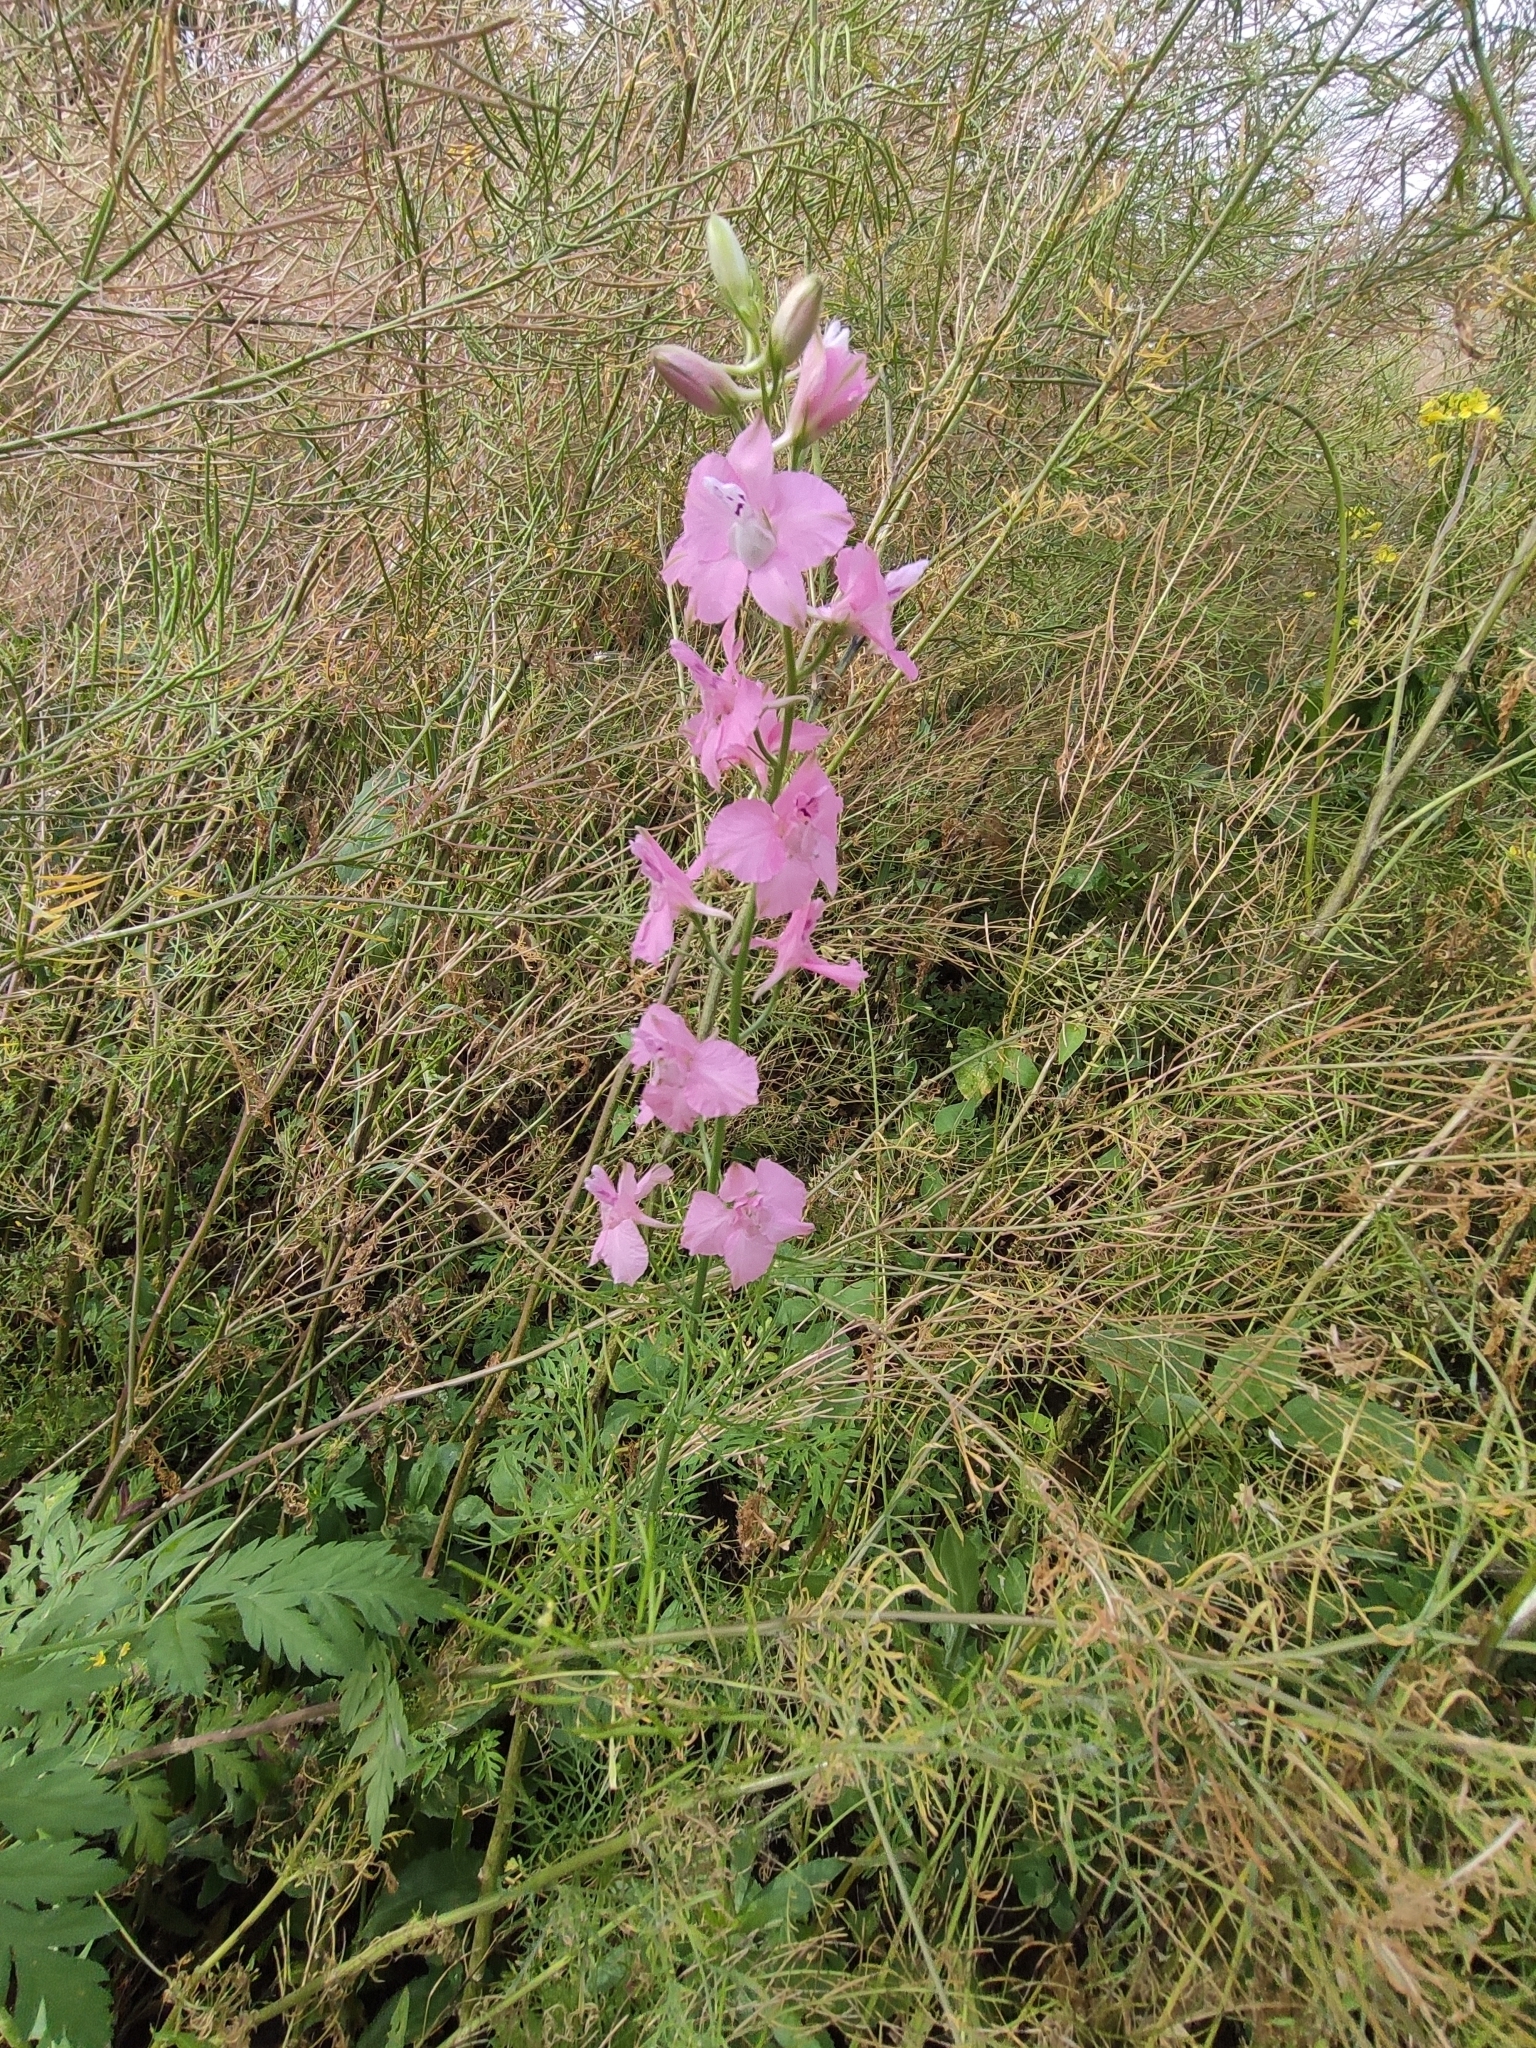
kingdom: Plantae
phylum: Tracheophyta
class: Magnoliopsida
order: Ranunculales
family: Ranunculaceae
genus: Delphinium
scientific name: Delphinium ajacis
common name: Doubtful knight's-spur
